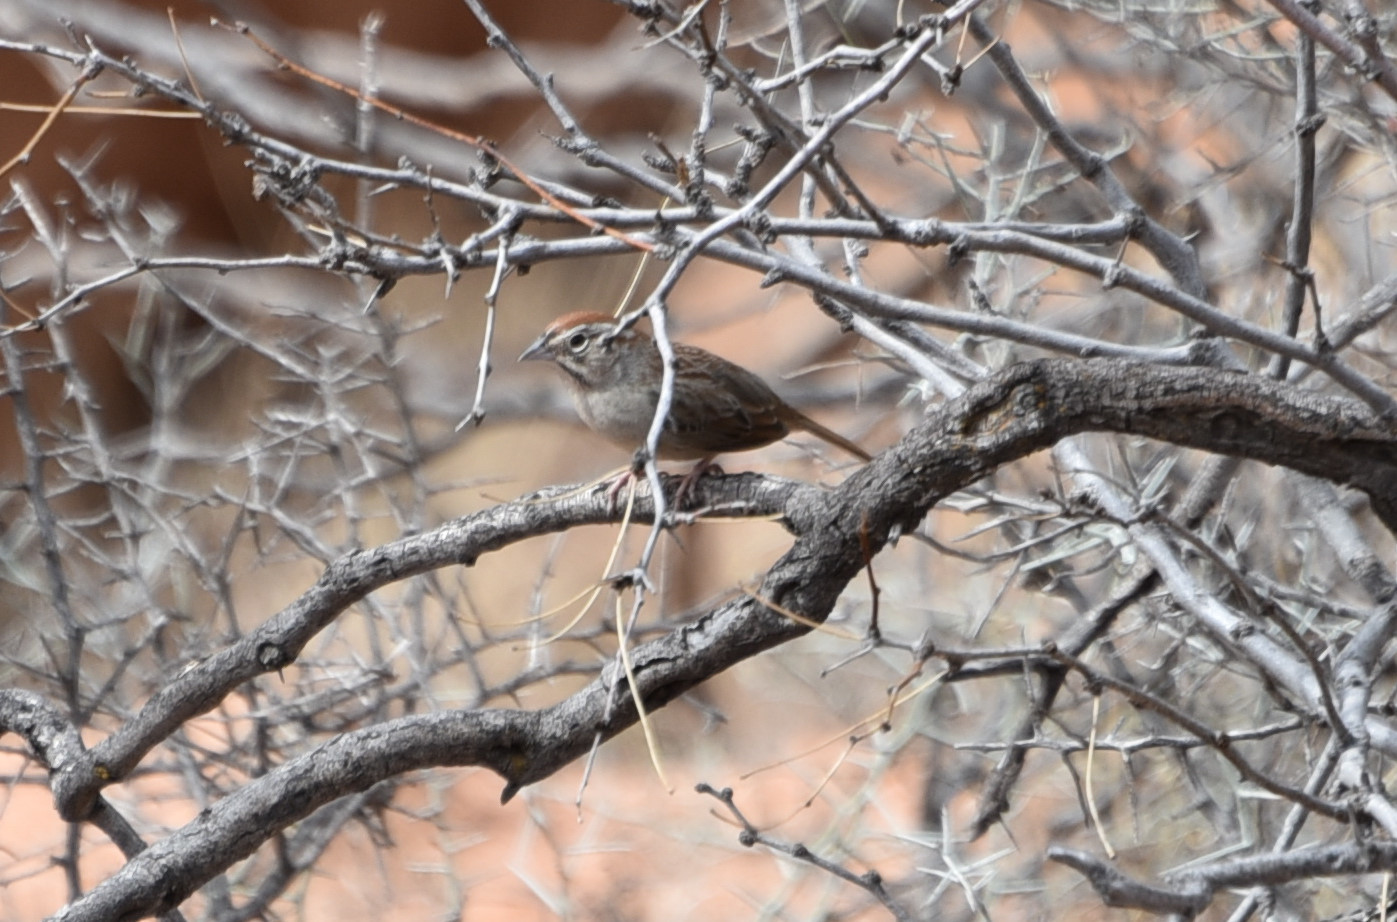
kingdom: Animalia
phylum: Chordata
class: Aves
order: Passeriformes
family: Passerellidae
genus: Aimophila
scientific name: Aimophila ruficeps
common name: Rufous-crowned sparrow
